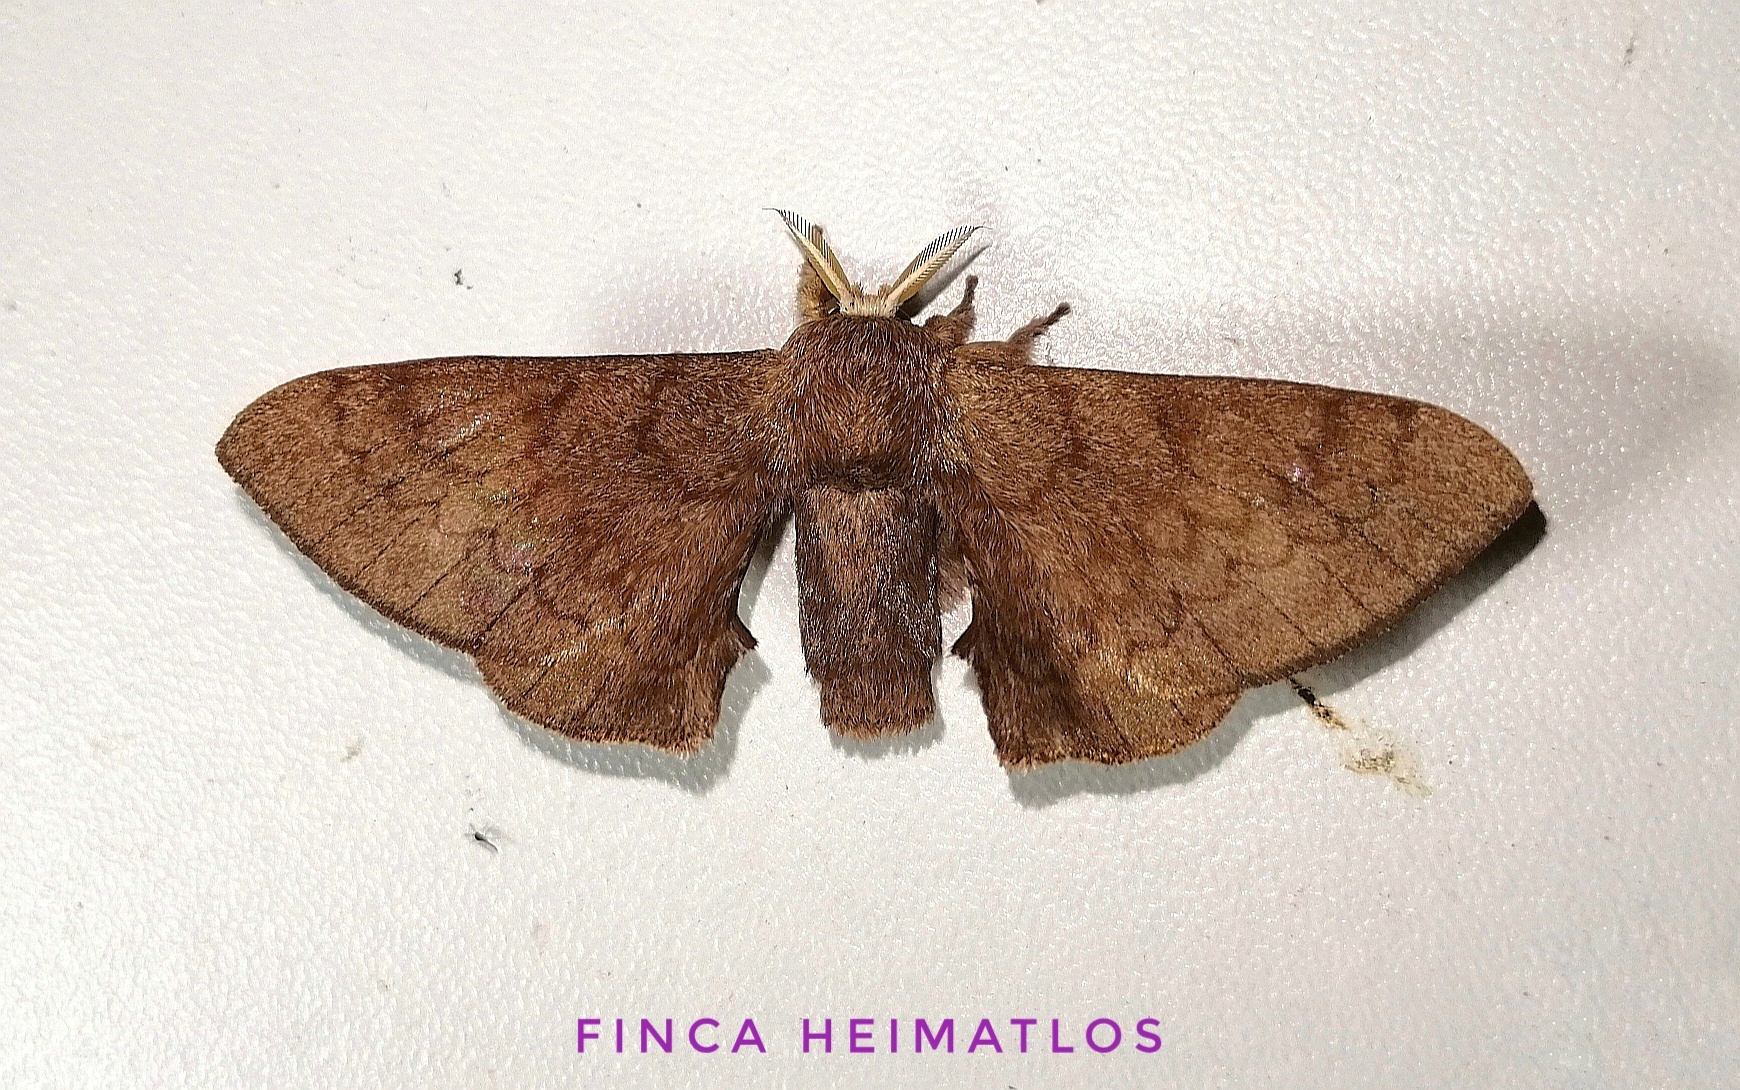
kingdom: Animalia
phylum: Arthropoda
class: Insecta
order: Lepidoptera
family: Bombycidae
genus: Epia
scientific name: Epia lunilinea
